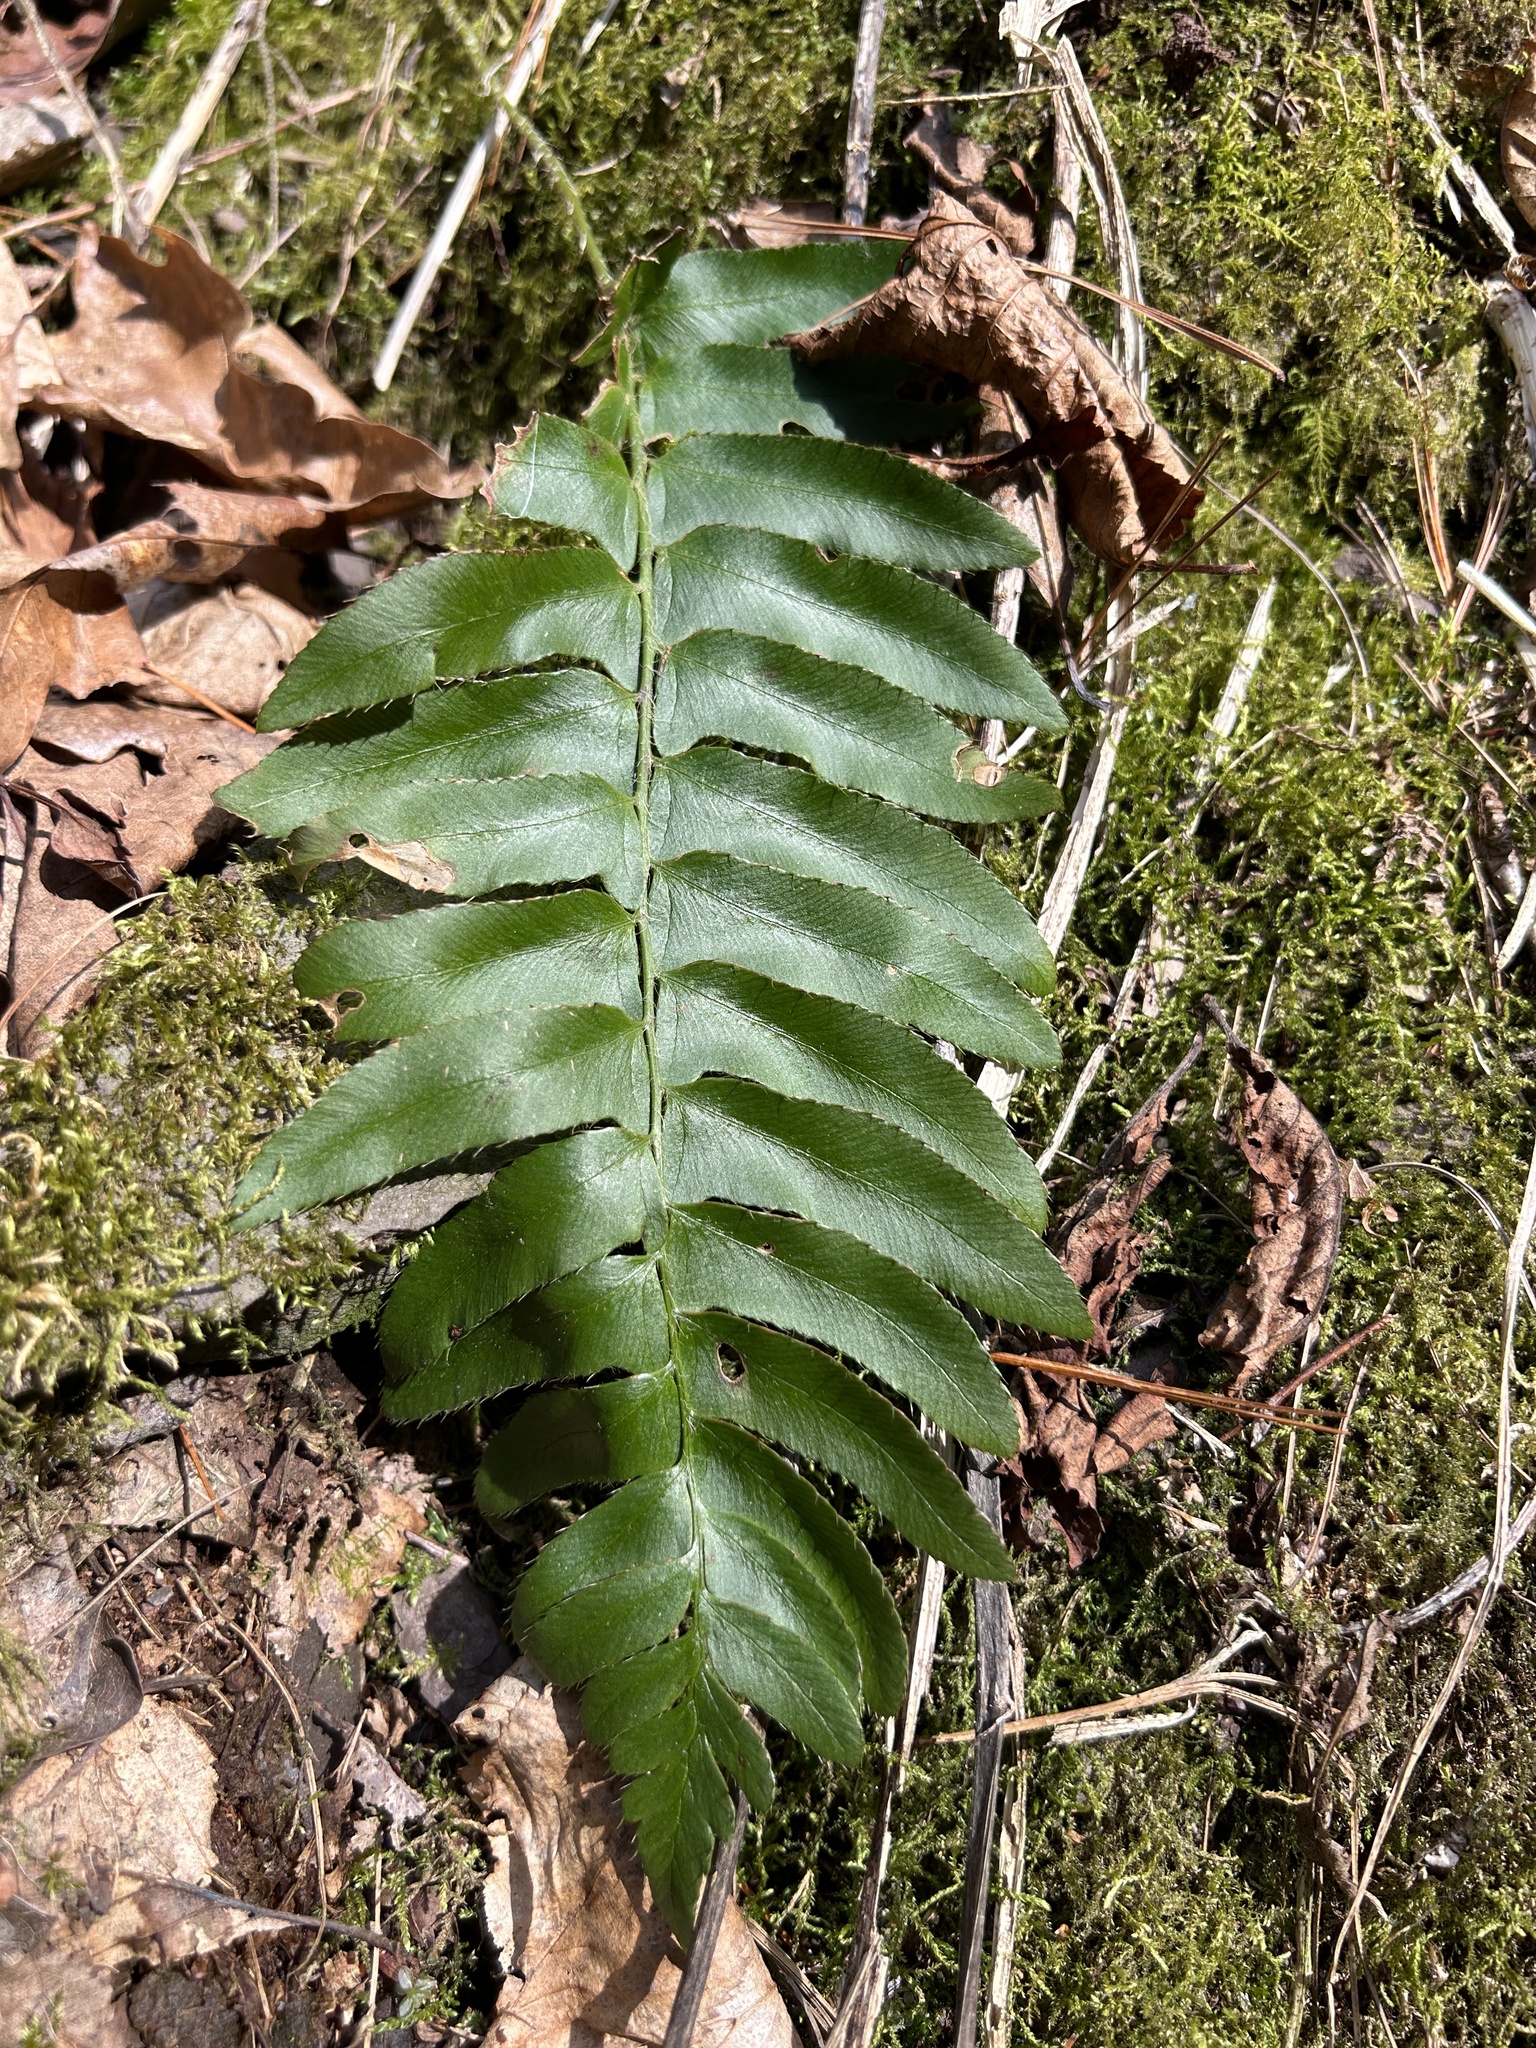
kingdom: Plantae
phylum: Tracheophyta
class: Polypodiopsida
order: Polypodiales
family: Dryopteridaceae
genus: Polystichum
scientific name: Polystichum acrostichoides
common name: Christmas fern
